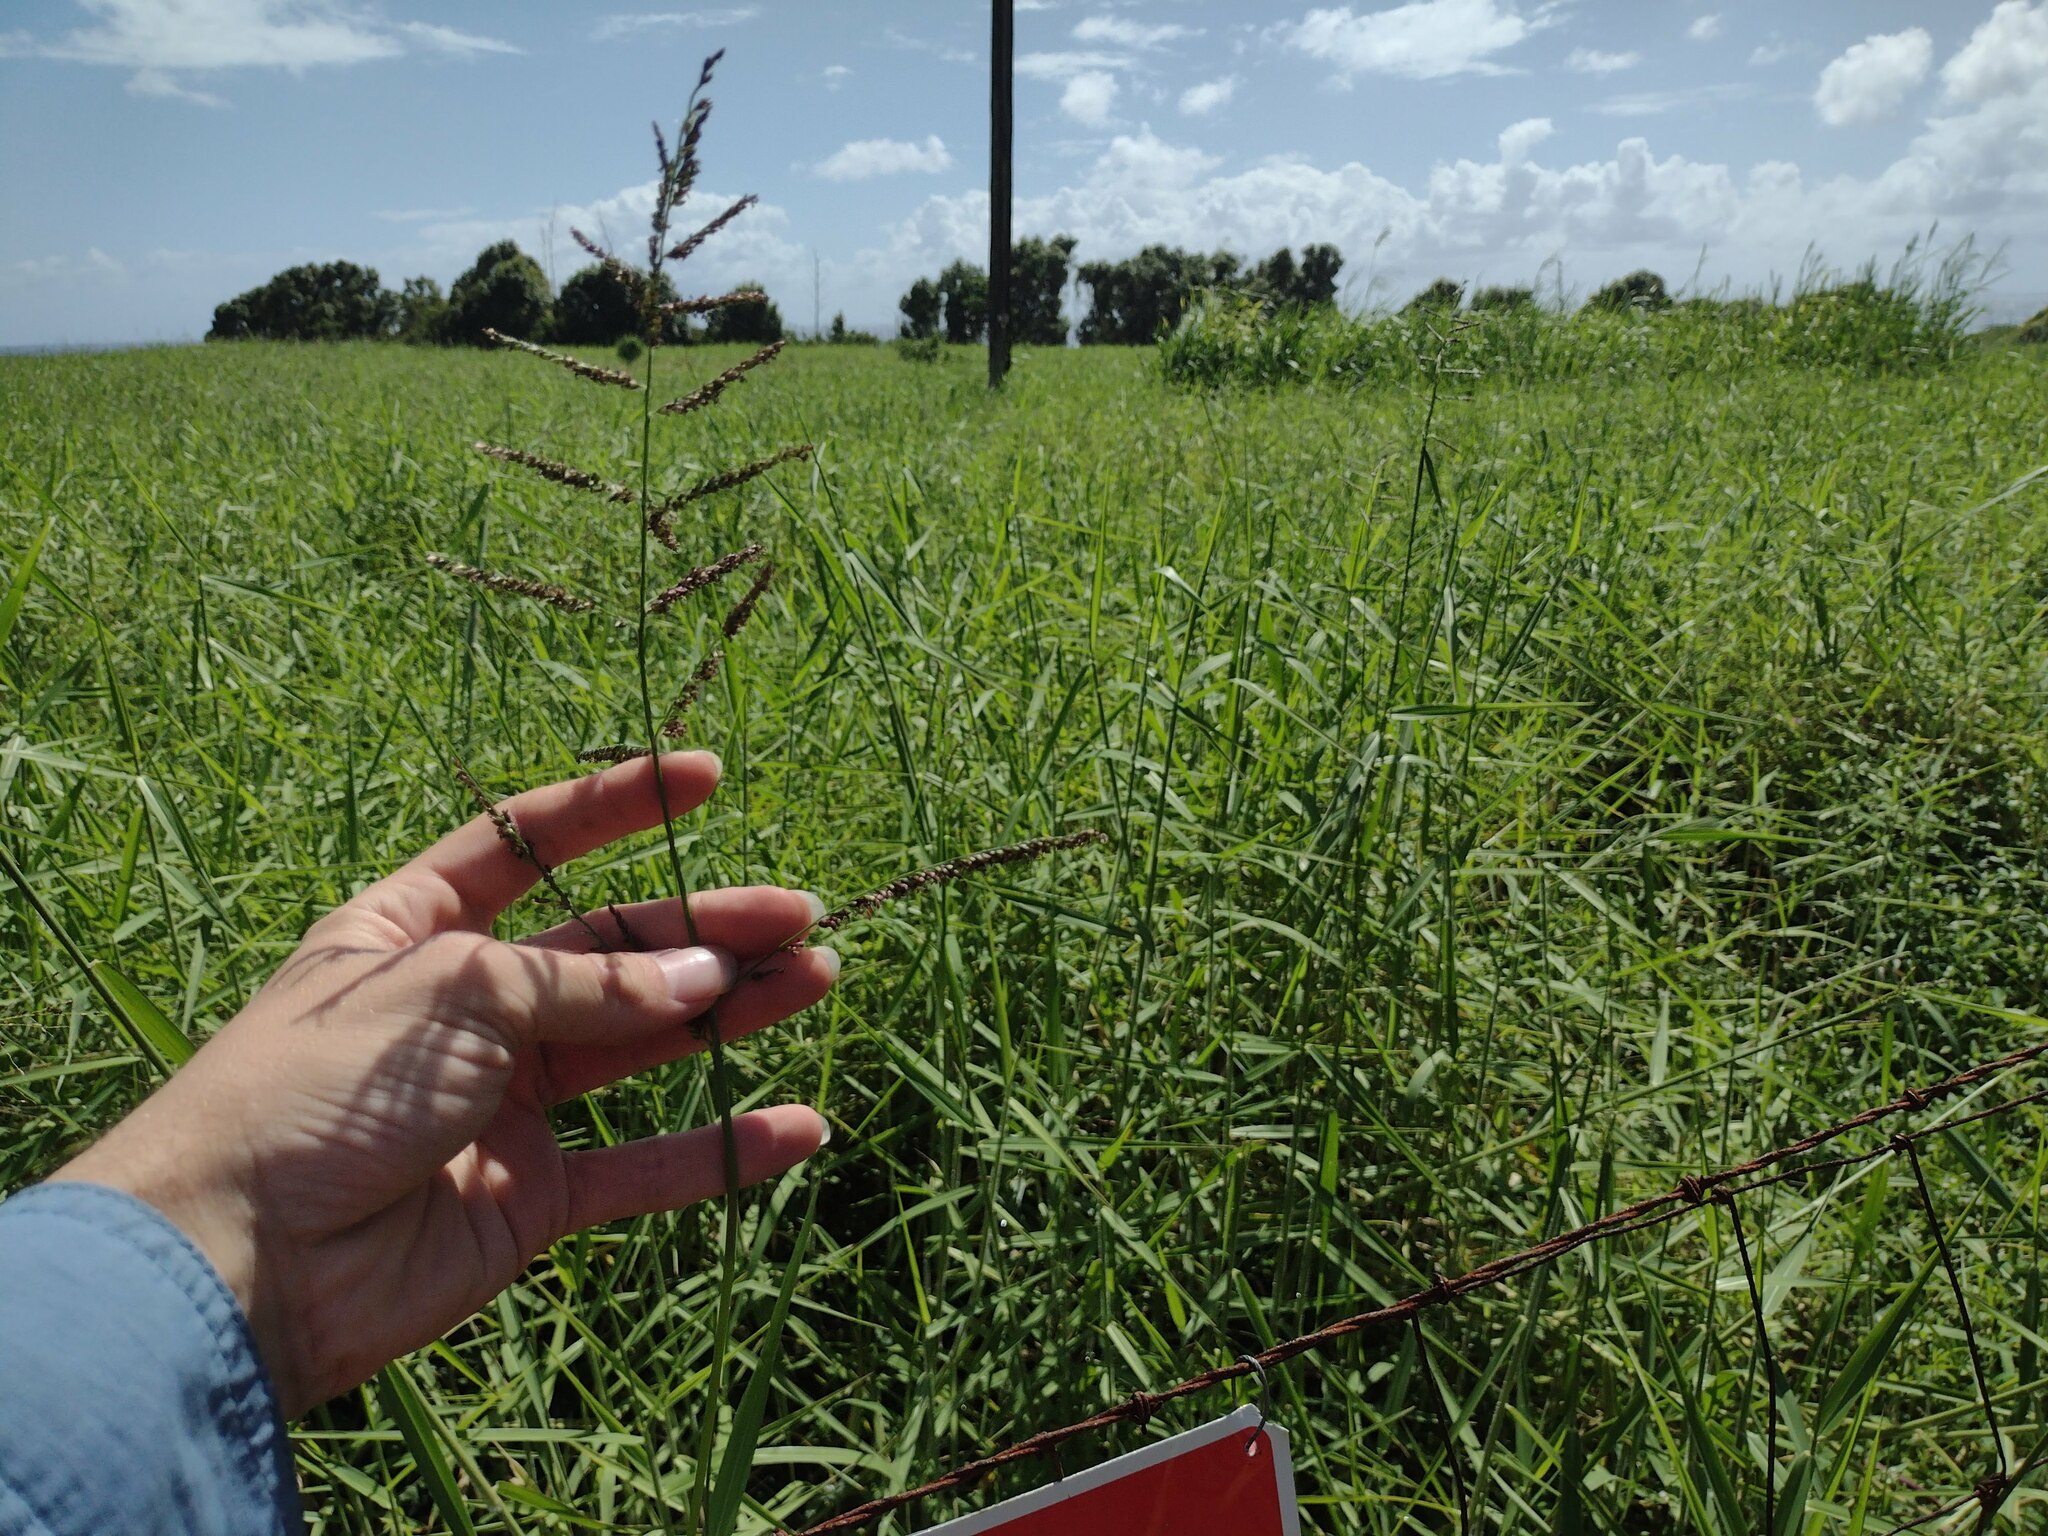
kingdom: Plantae
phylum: Tracheophyta
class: Liliopsida
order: Poales
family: Poaceae
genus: Urochloa
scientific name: Urochloa mutica
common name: Para grass
